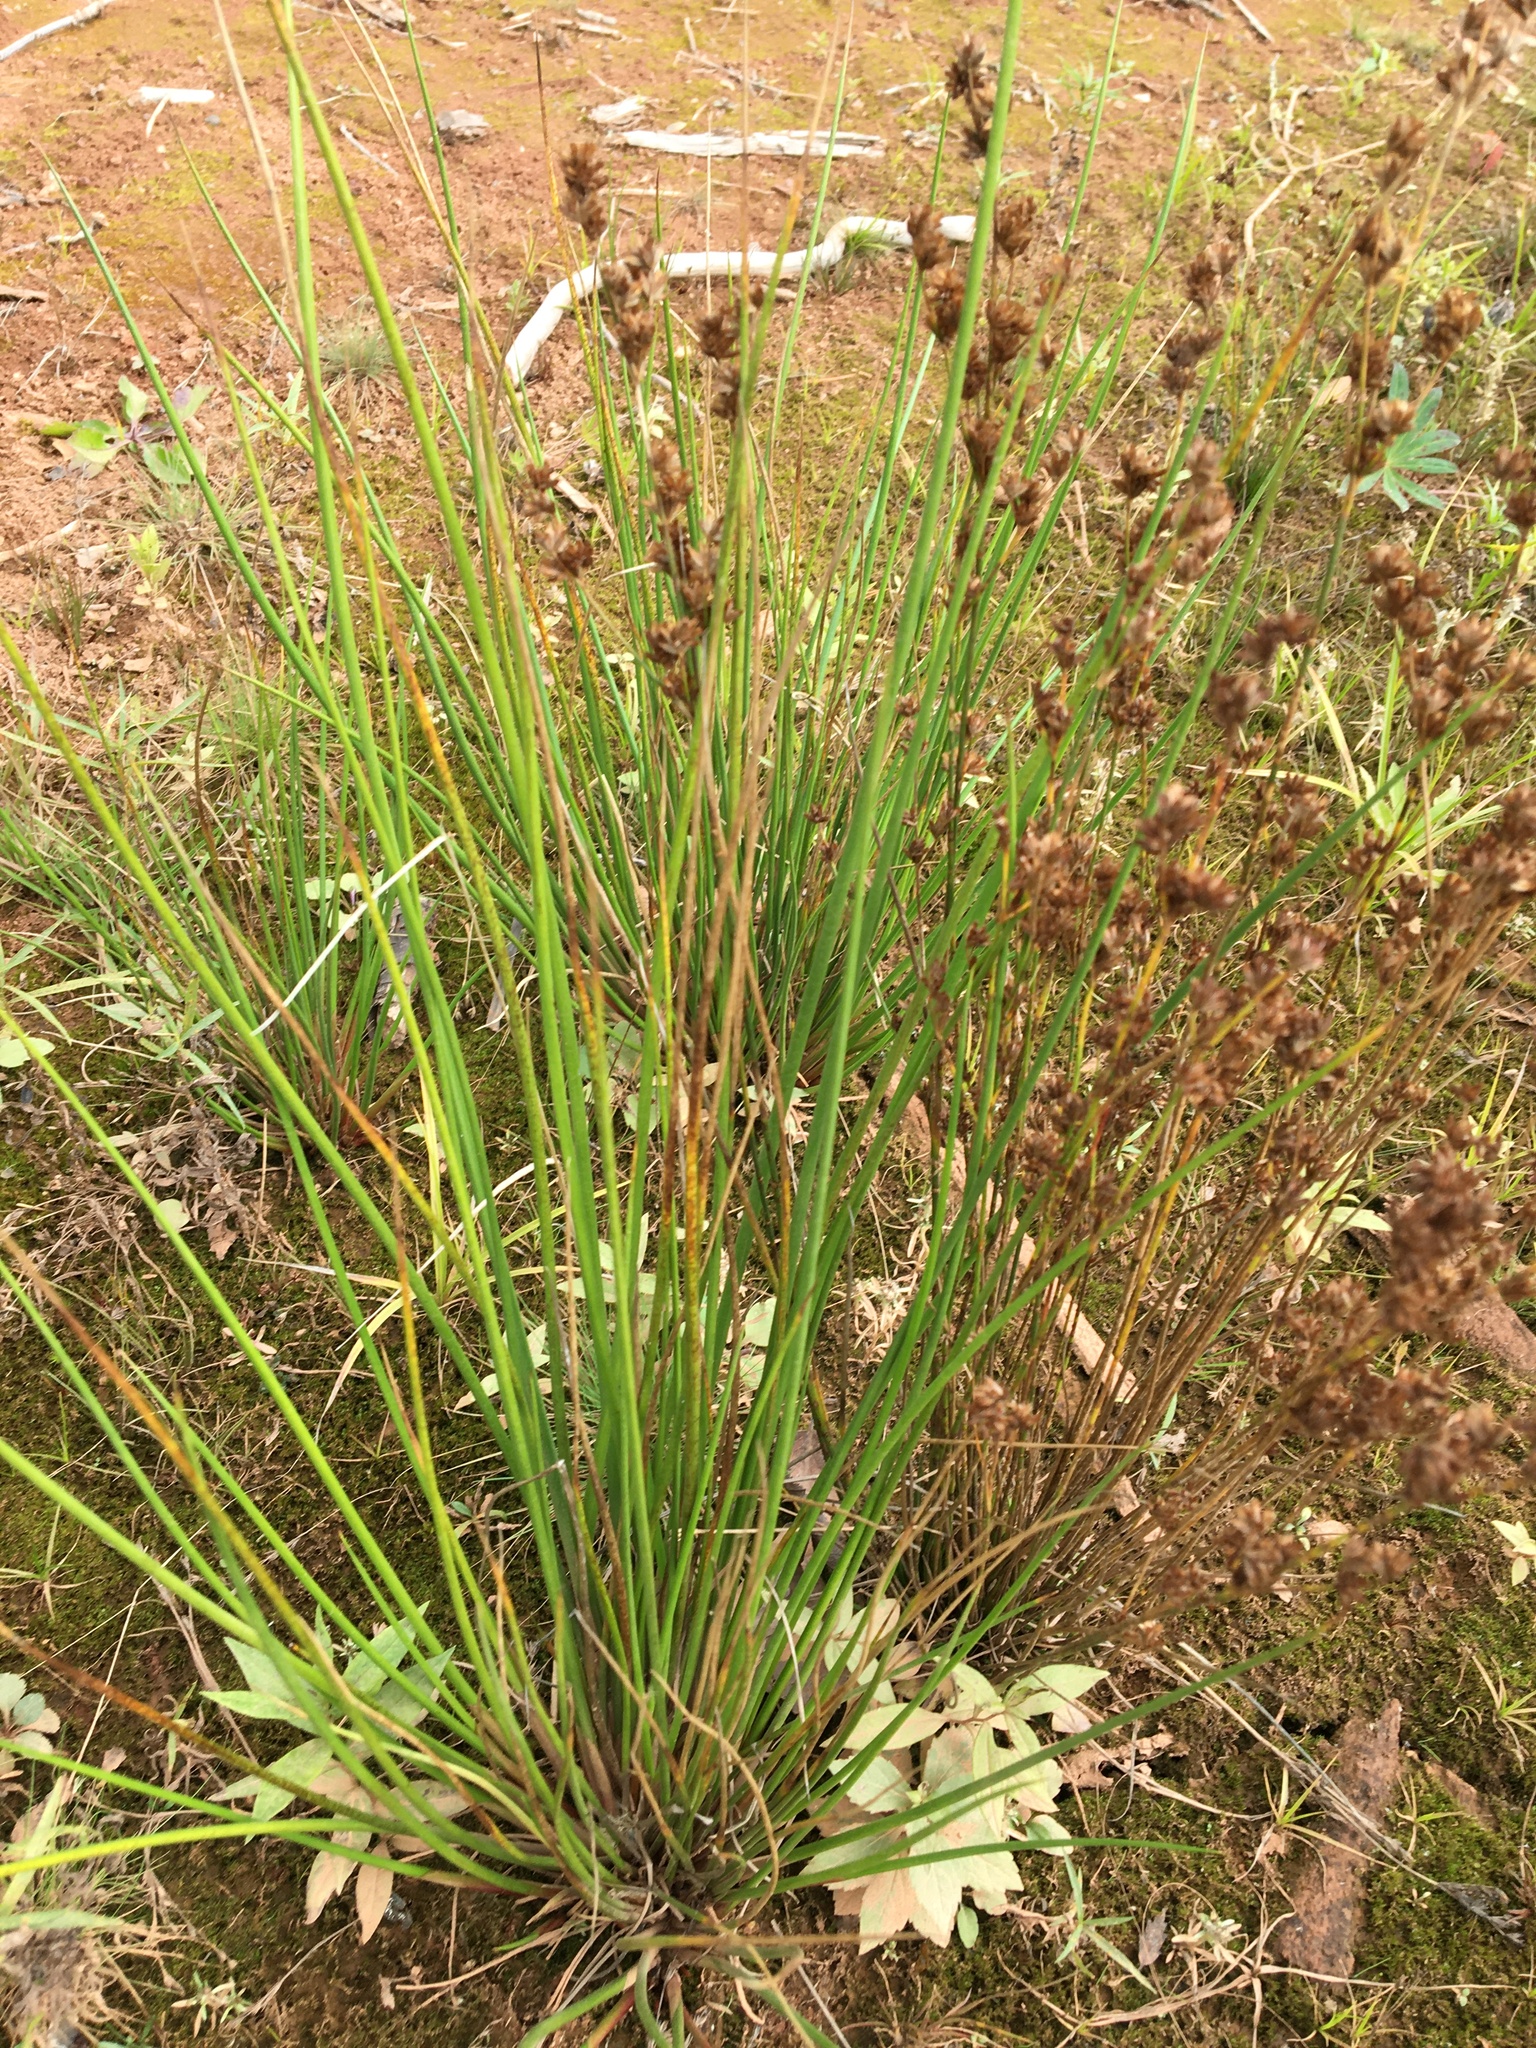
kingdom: Plantae
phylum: Tracheophyta
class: Liliopsida
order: Poales
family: Juncaceae
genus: Juncus
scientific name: Juncus effusus
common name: Soft rush
